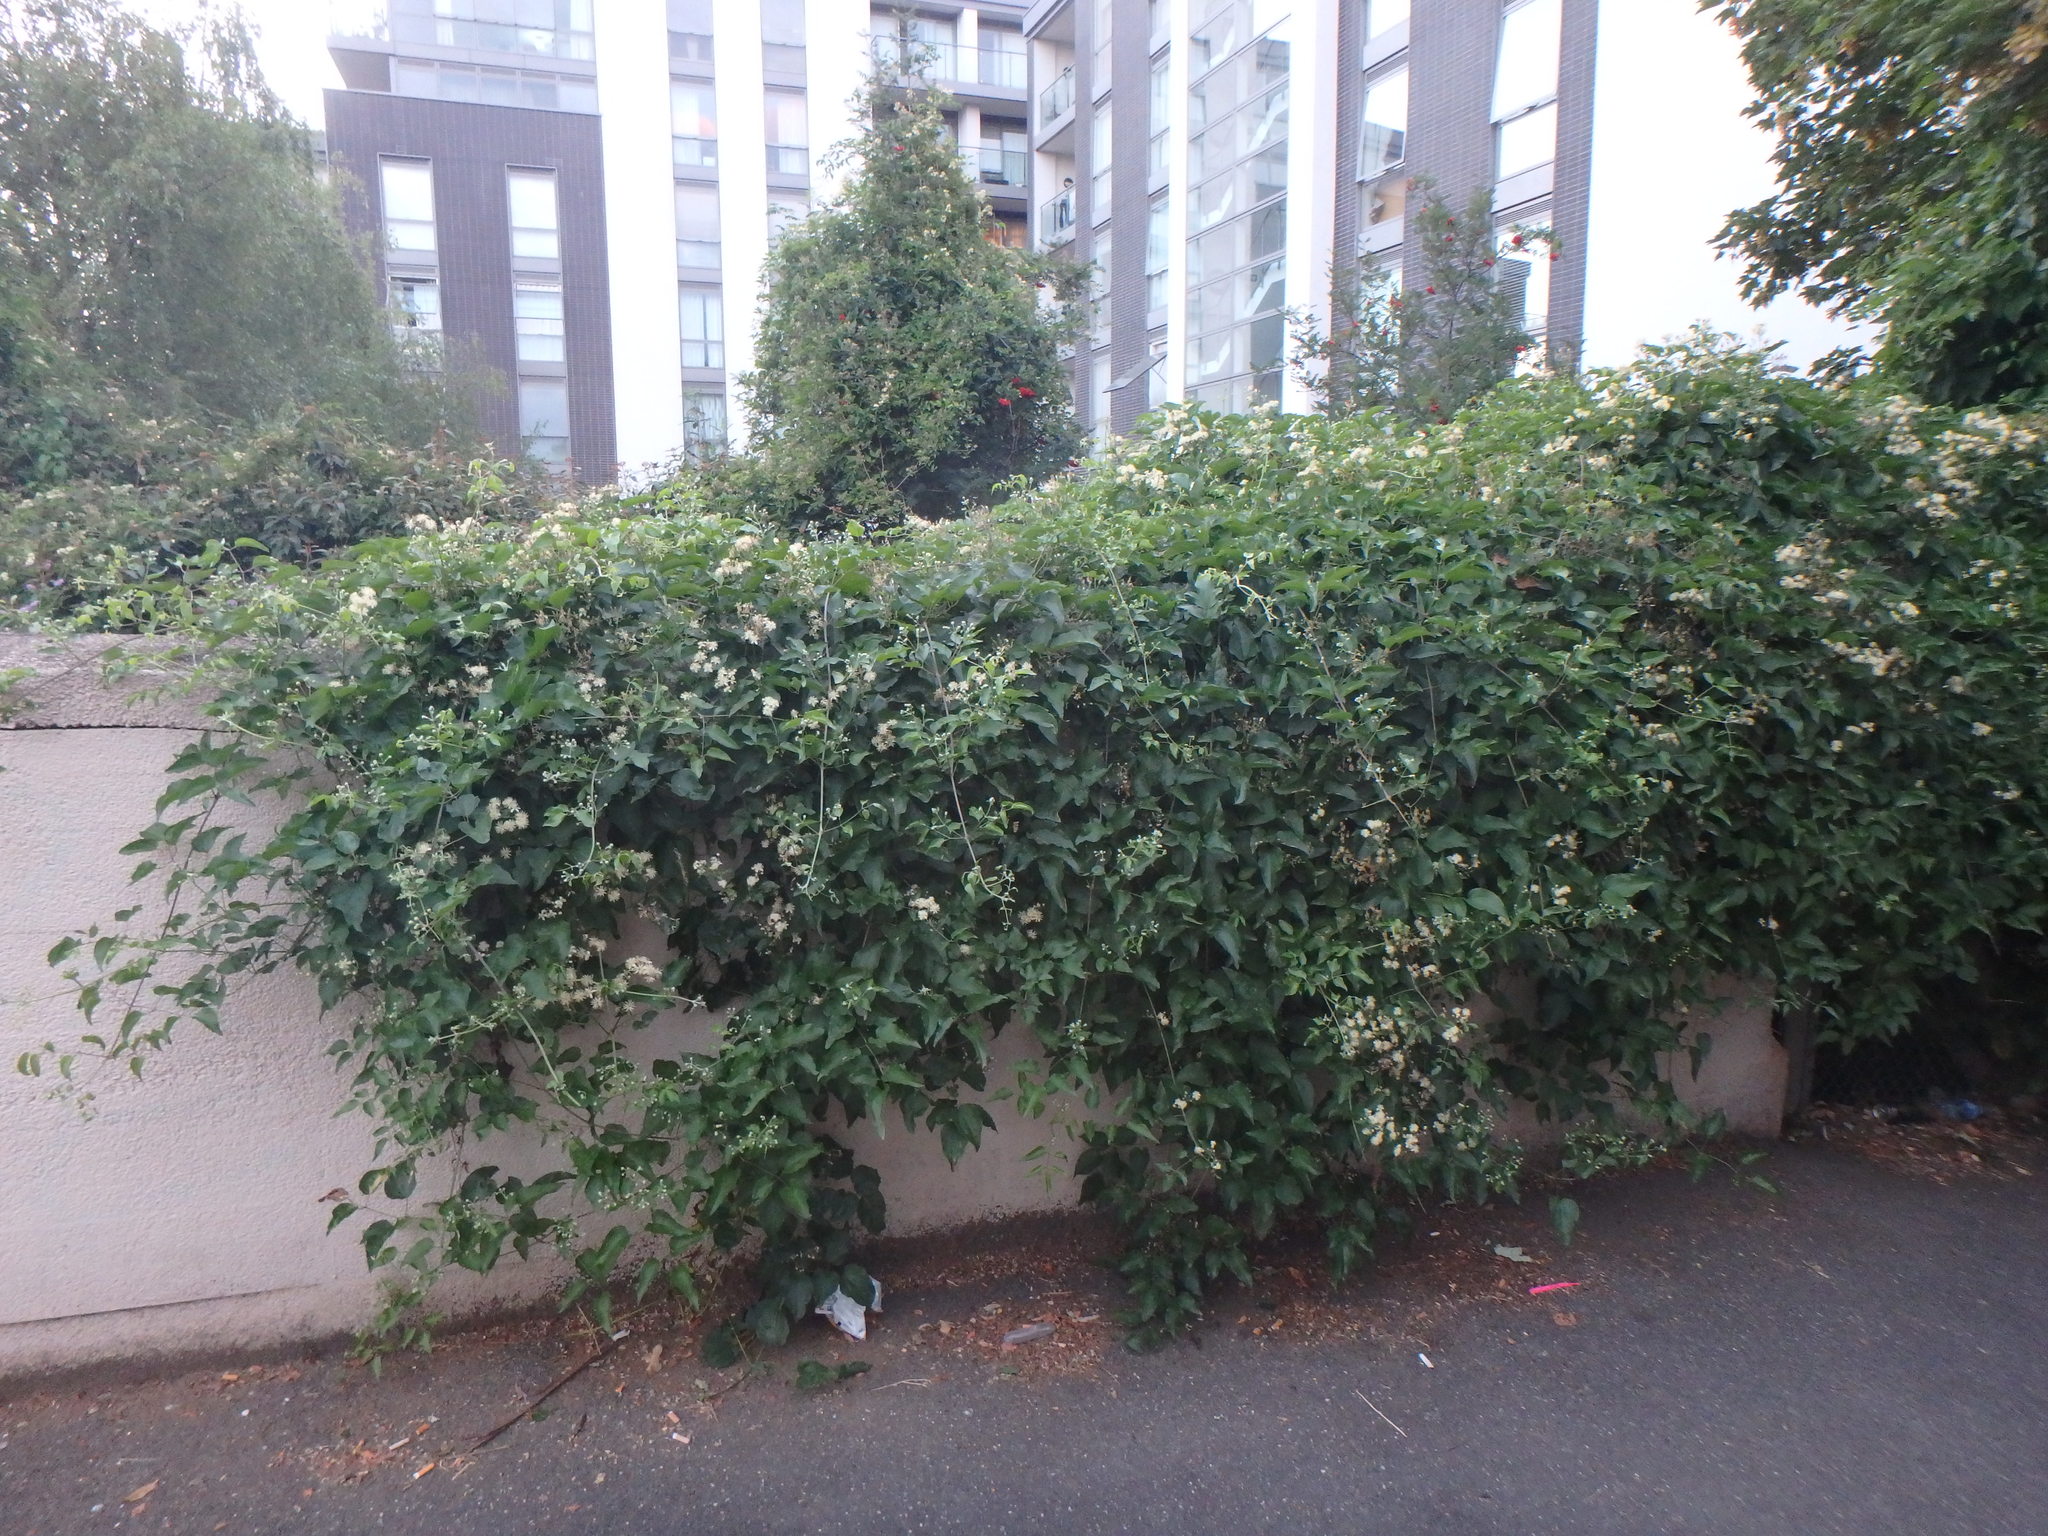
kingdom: Plantae
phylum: Tracheophyta
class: Magnoliopsida
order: Ranunculales
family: Ranunculaceae
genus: Clematis
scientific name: Clematis vitalba
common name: Evergreen clematis
